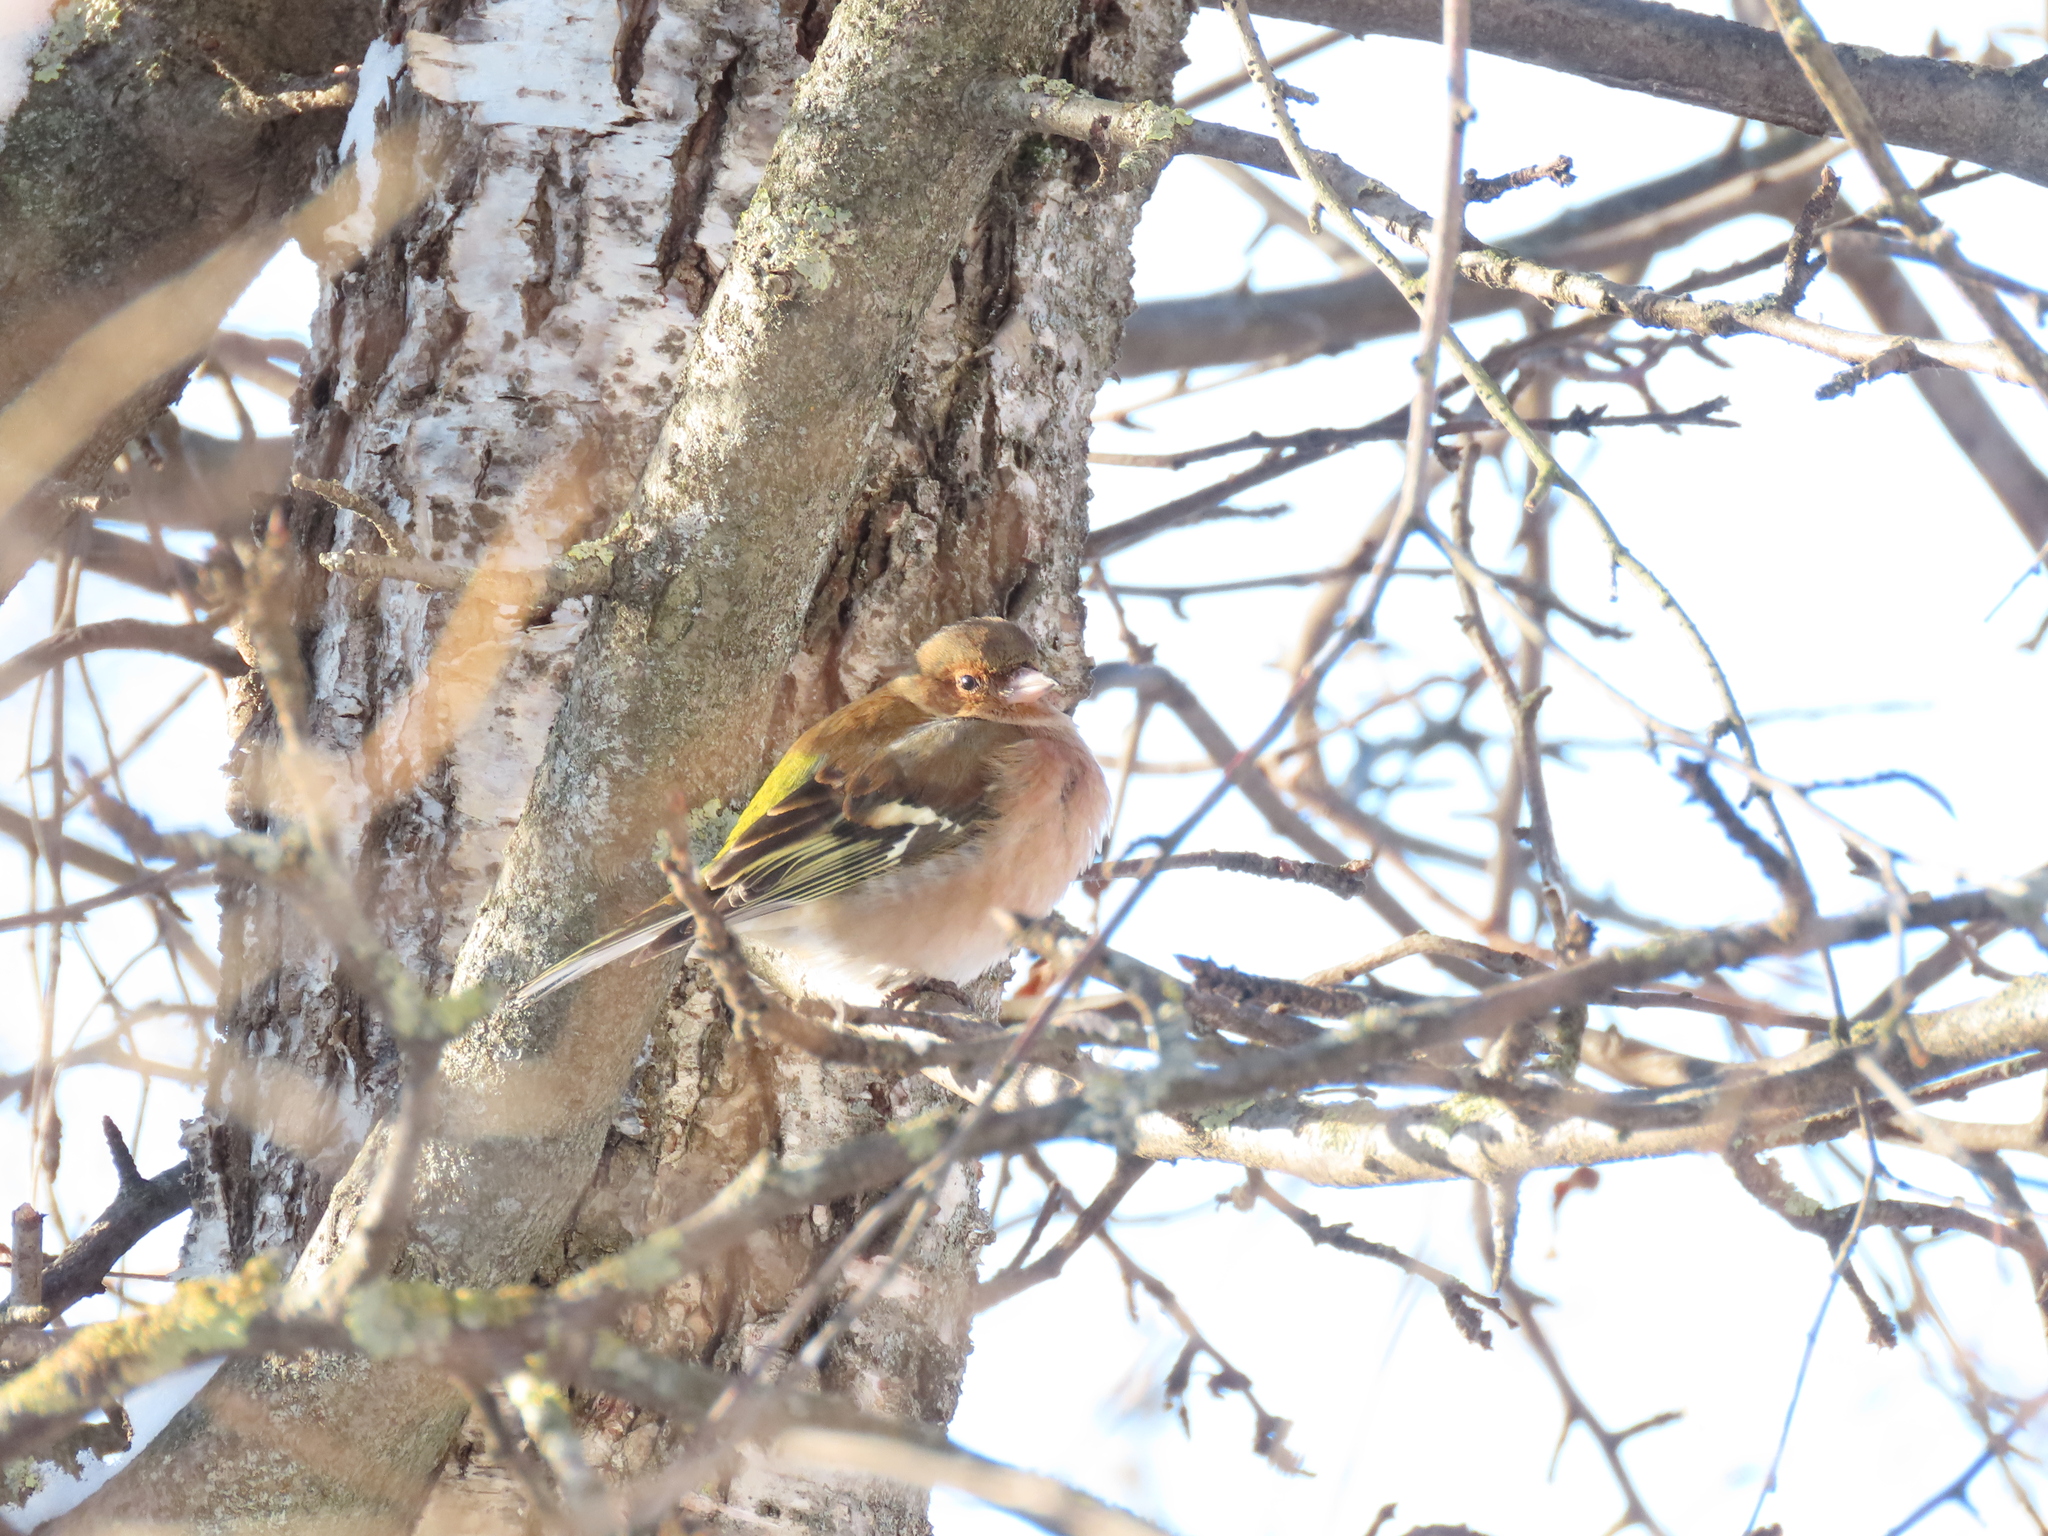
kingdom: Animalia
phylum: Chordata
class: Aves
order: Passeriformes
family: Fringillidae
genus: Fringilla
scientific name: Fringilla coelebs
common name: Common chaffinch
